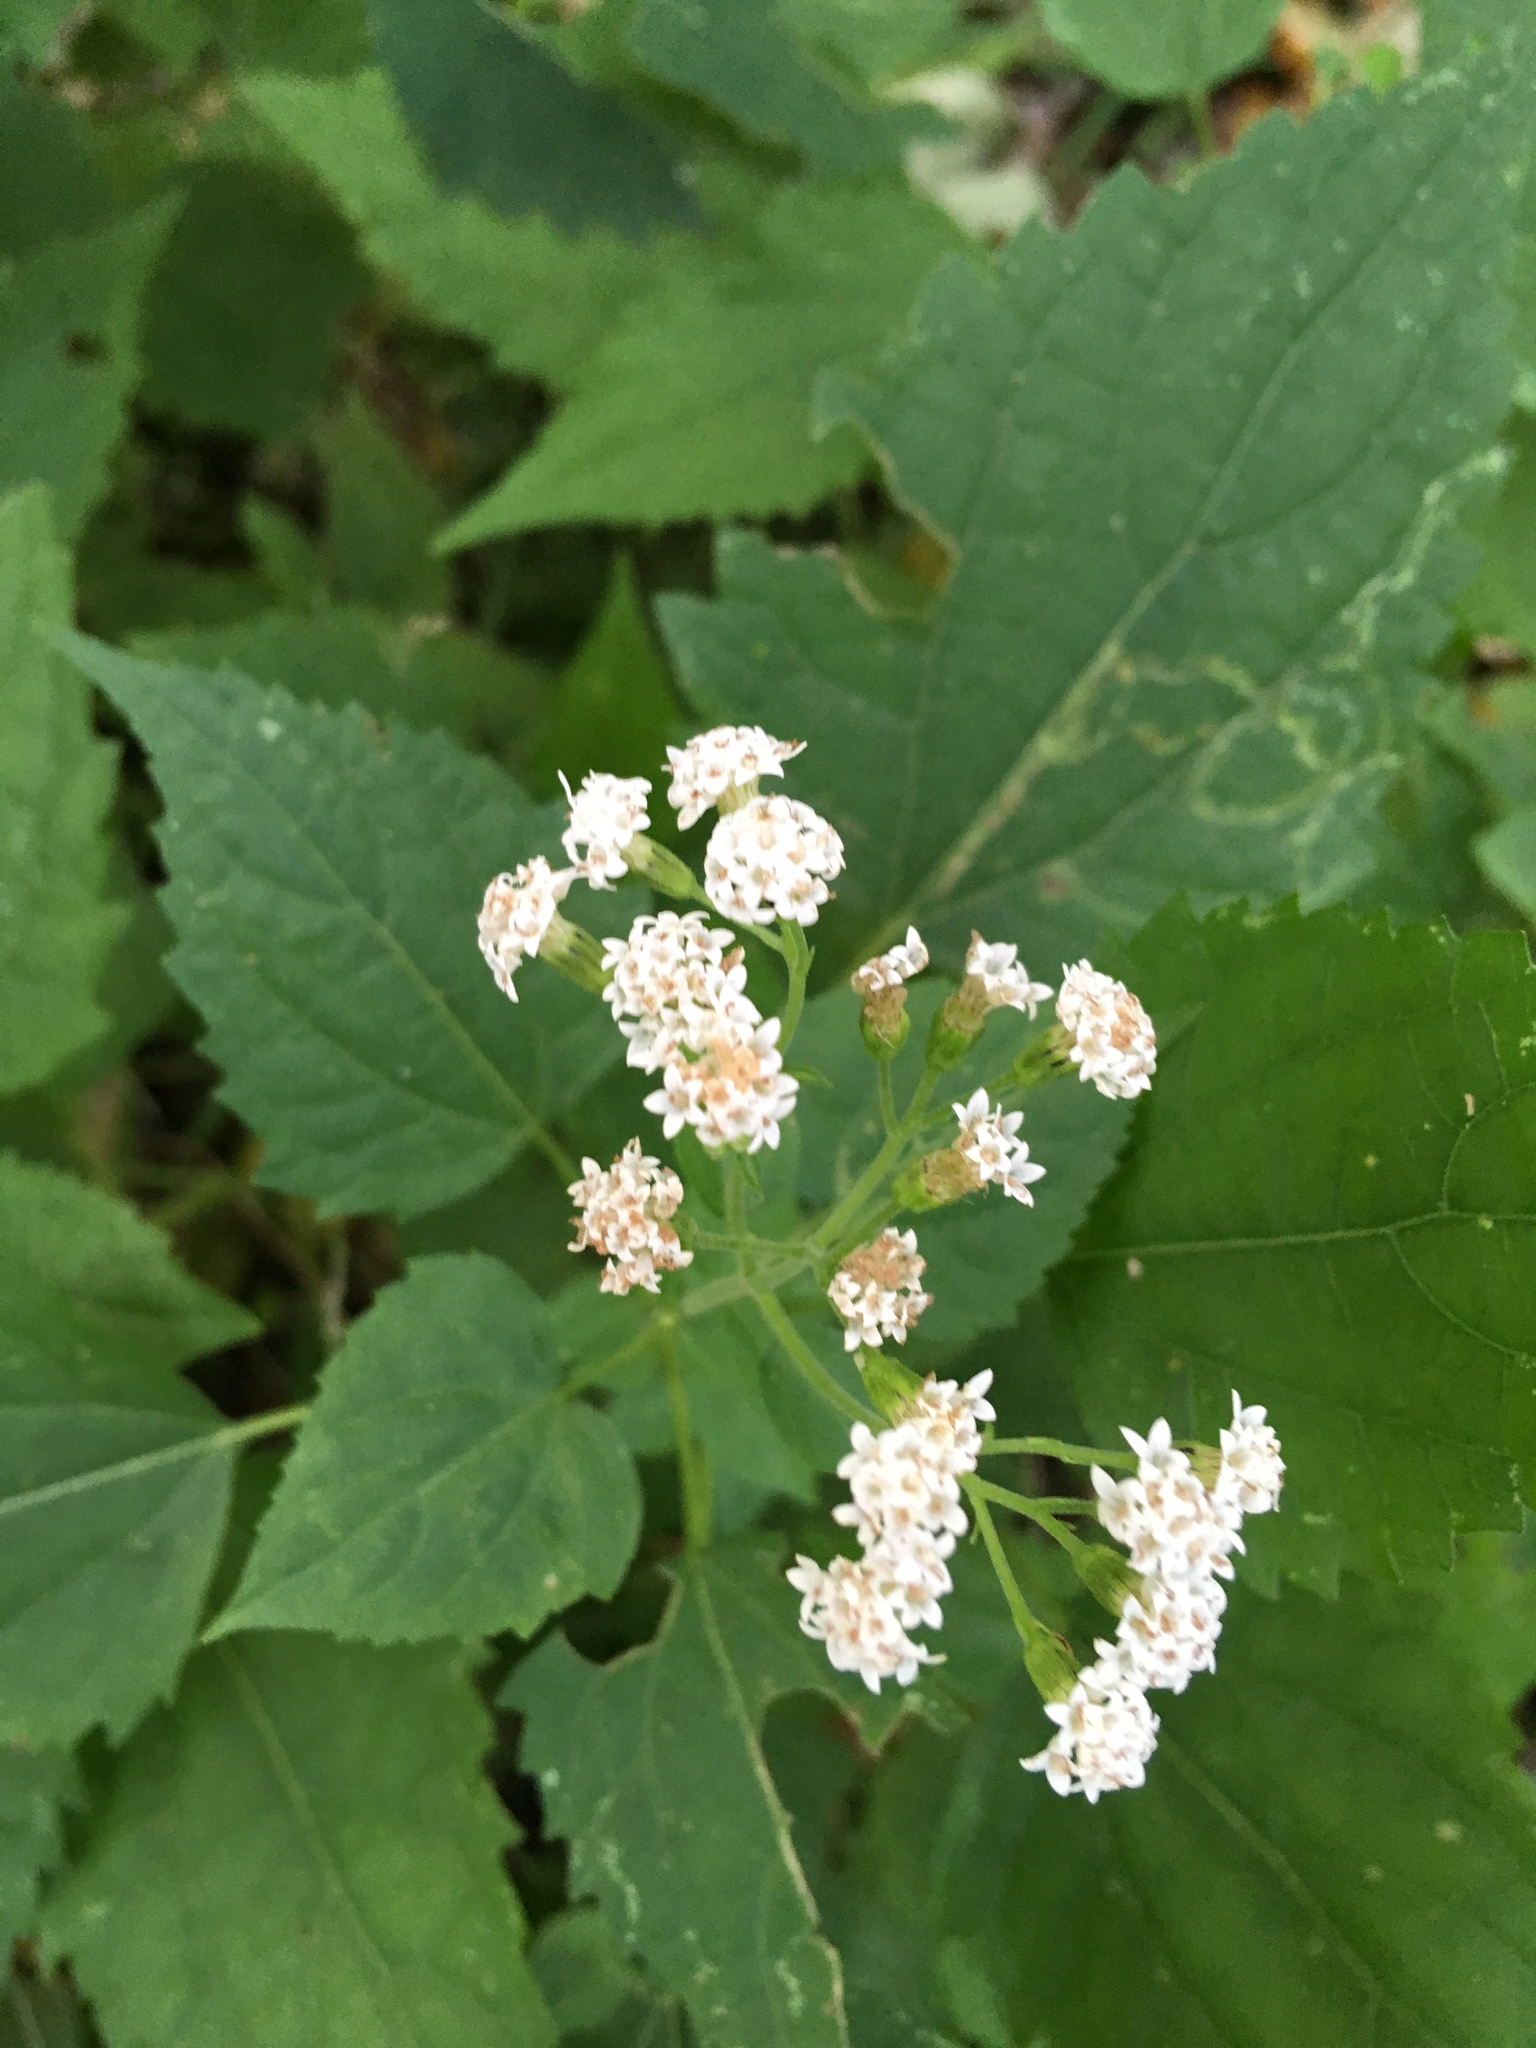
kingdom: Plantae
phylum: Tracheophyta
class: Magnoliopsida
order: Asterales
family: Asteraceae
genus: Ageratina
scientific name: Ageratina altissima
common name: White snakeroot
